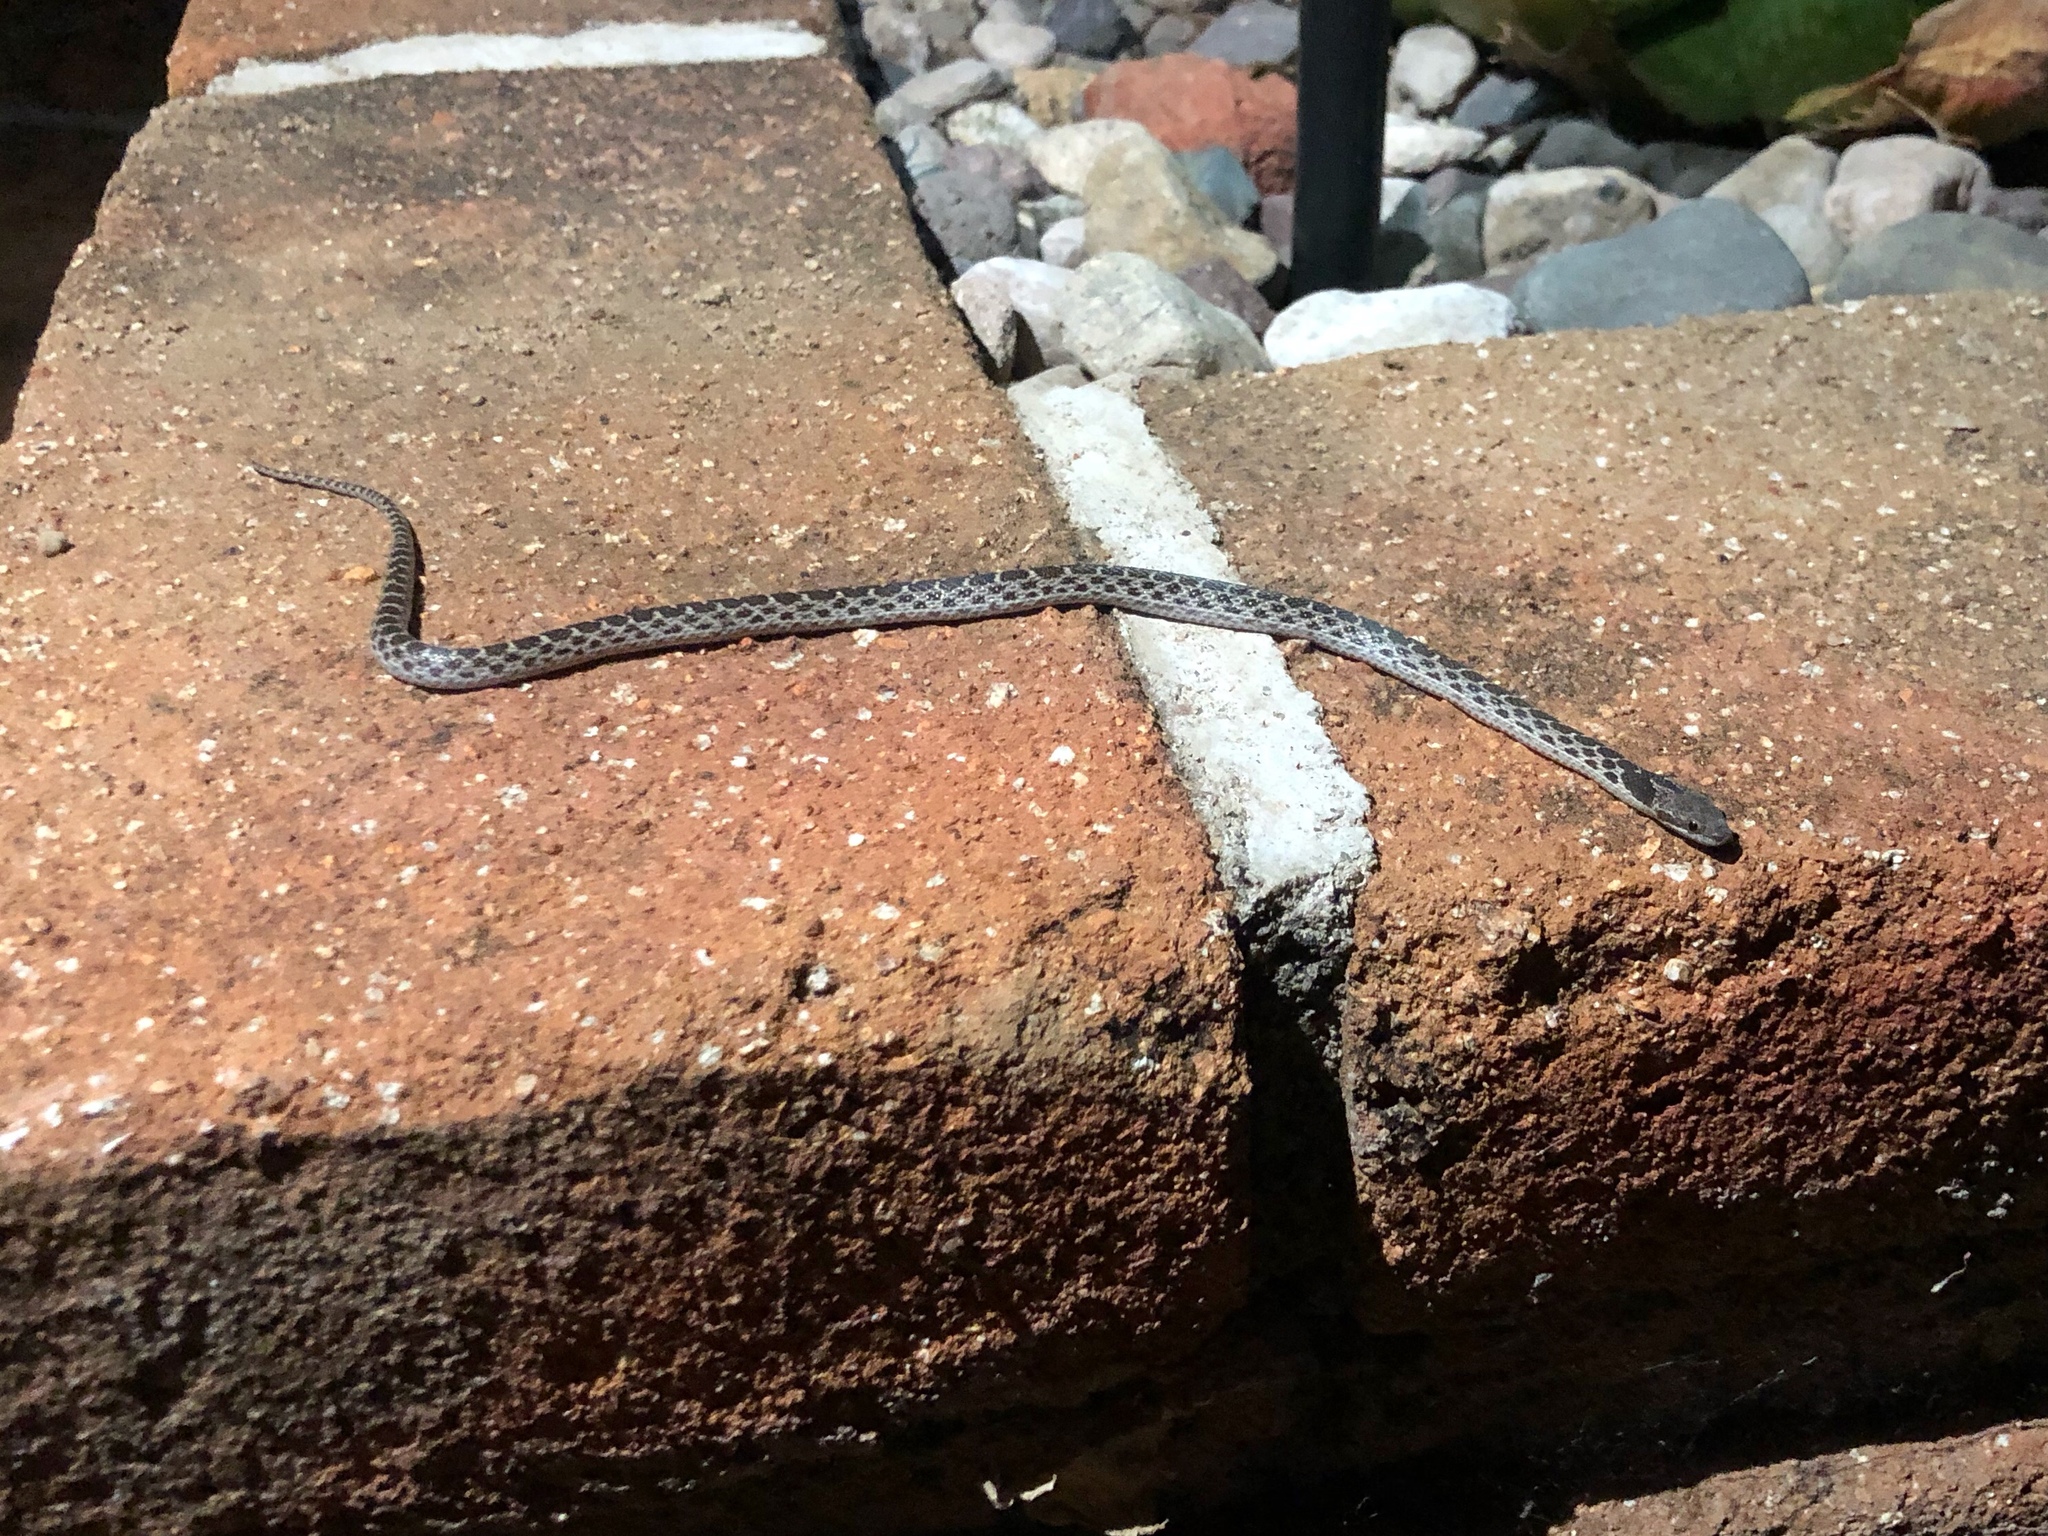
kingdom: Animalia
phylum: Chordata
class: Squamata
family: Colubridae
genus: Hypsiglena
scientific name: Hypsiglena chlorophaea
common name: Desert nightsnake
